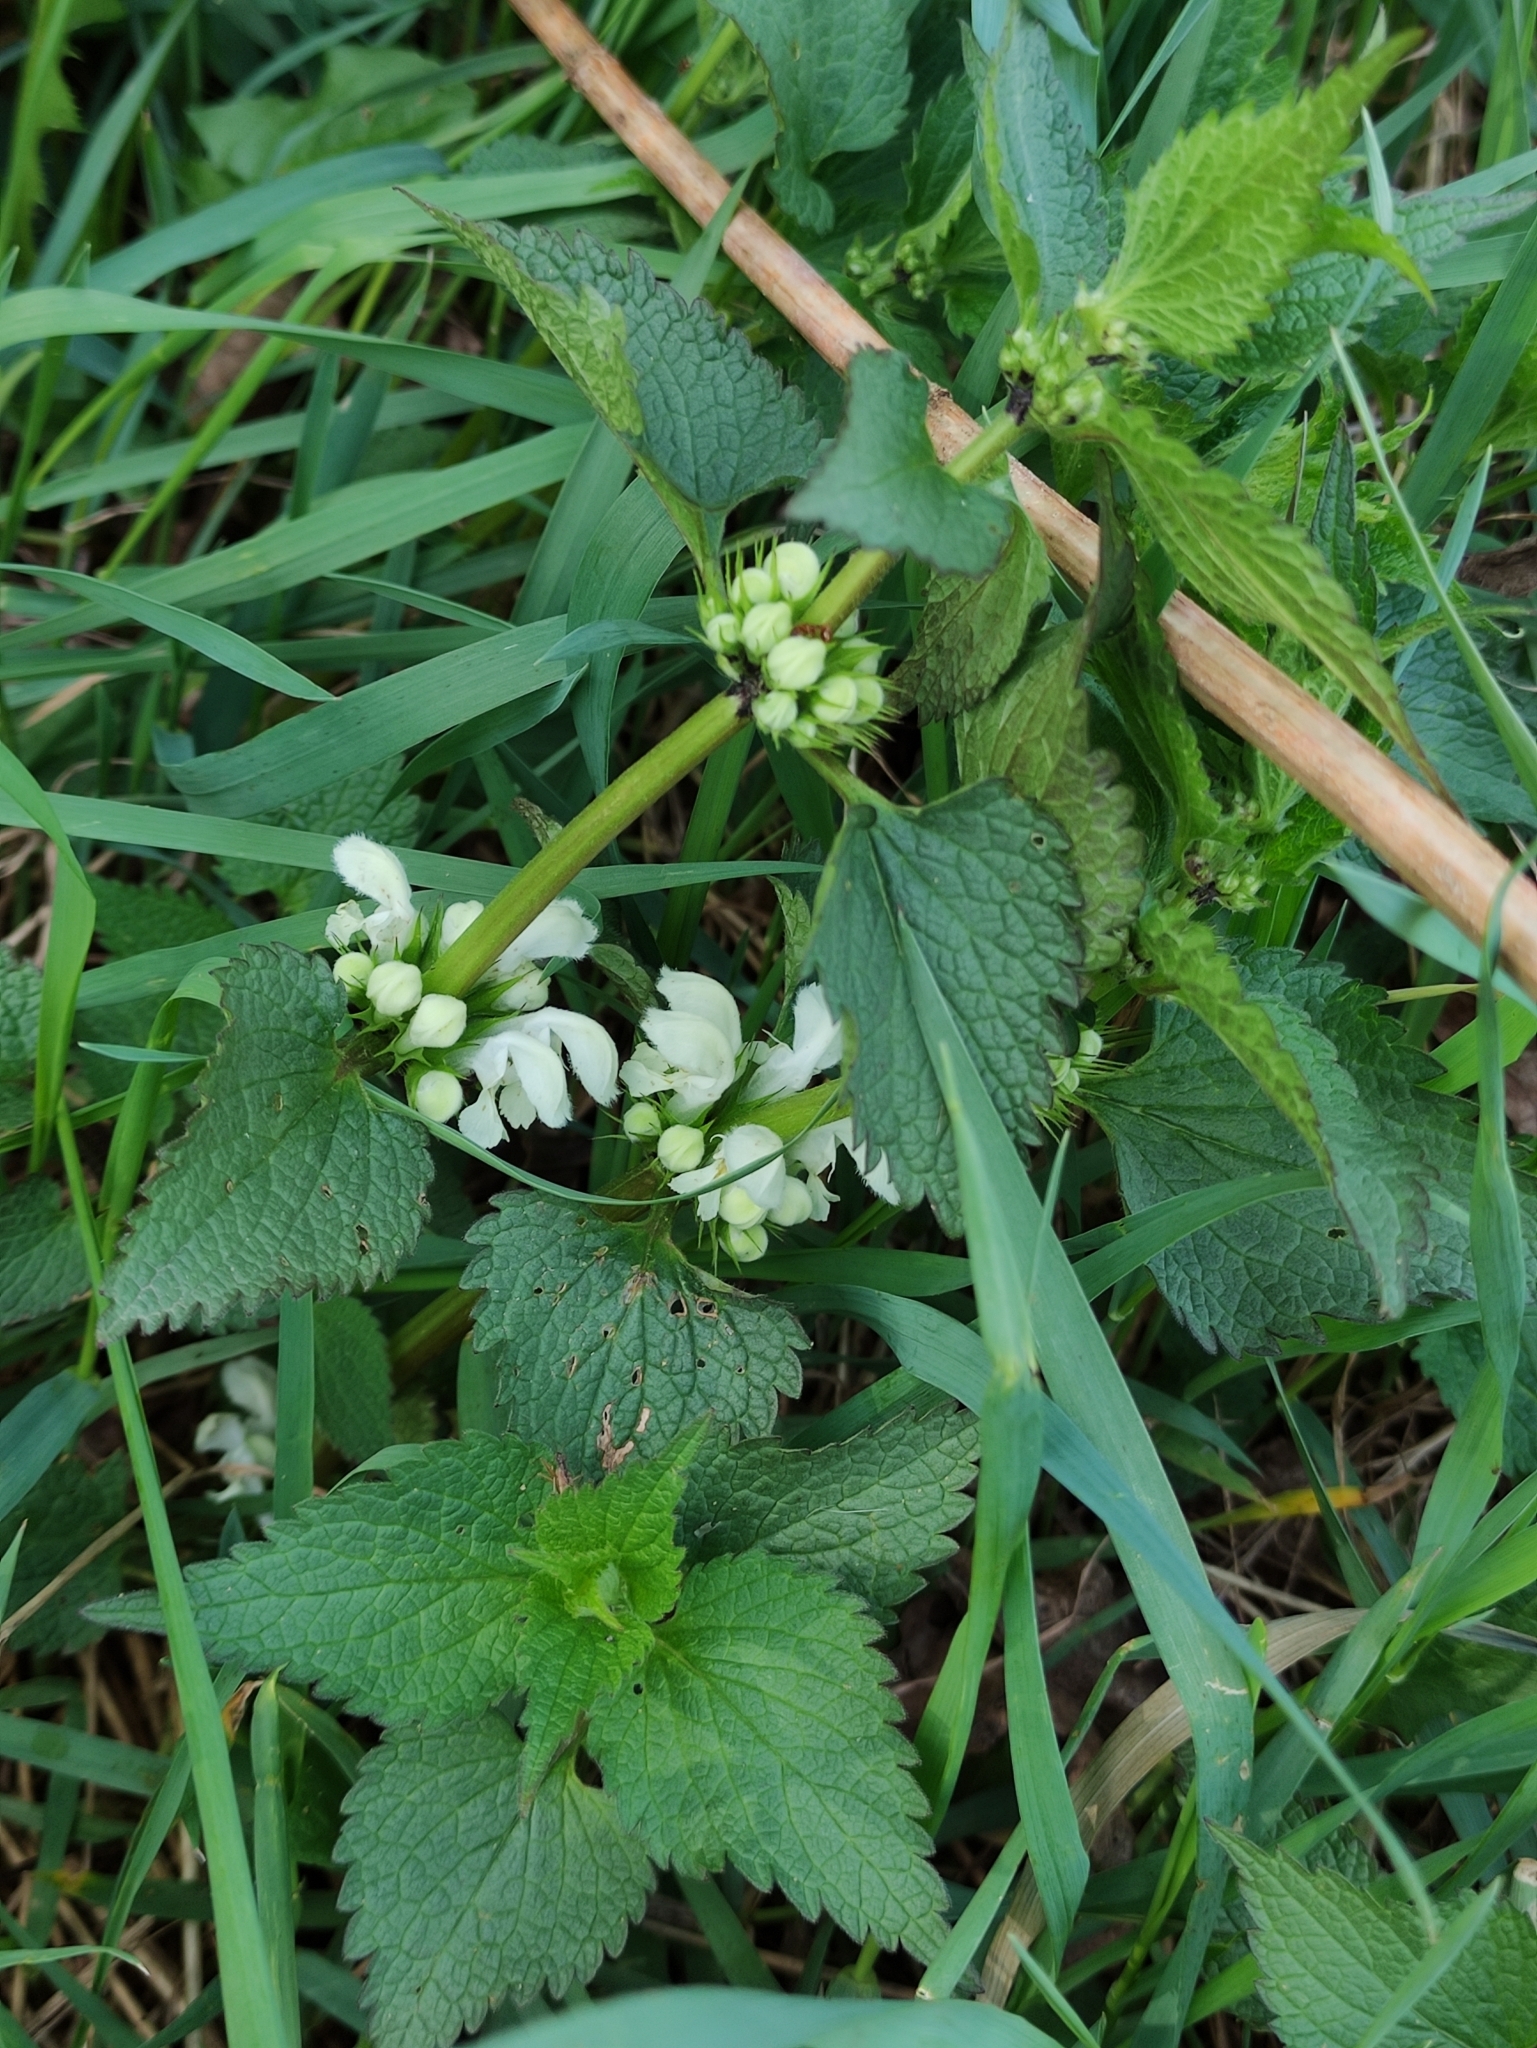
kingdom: Plantae
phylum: Tracheophyta
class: Magnoliopsida
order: Lamiales
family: Lamiaceae
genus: Lamium
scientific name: Lamium album
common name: White dead-nettle
